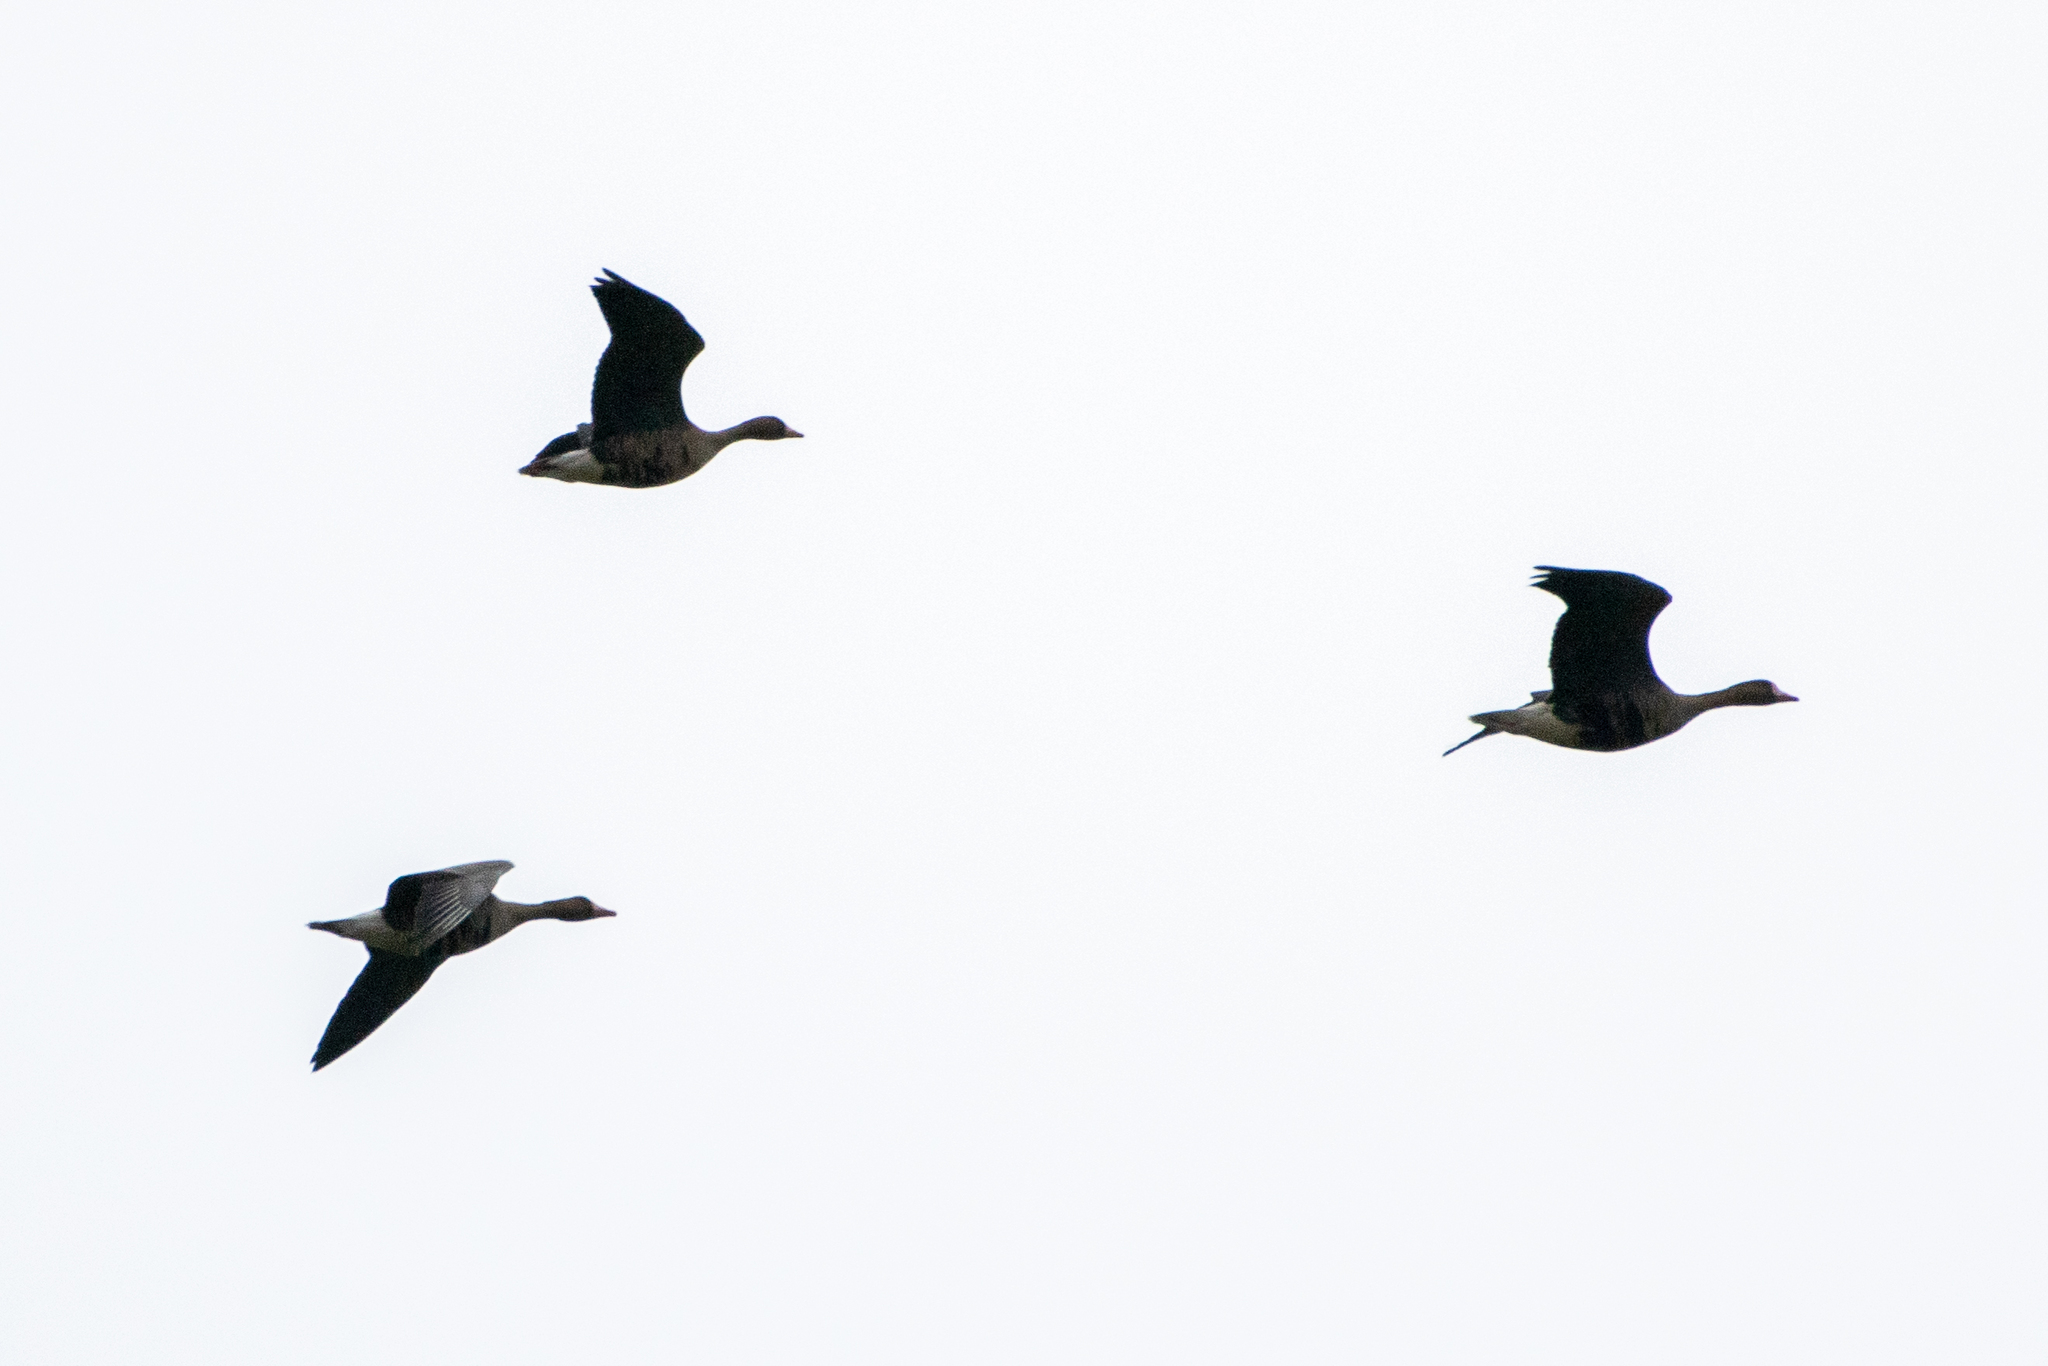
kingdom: Animalia
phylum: Chordata
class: Aves
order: Anseriformes
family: Anatidae
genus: Anser
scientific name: Anser albifrons
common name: Greater white-fronted goose
